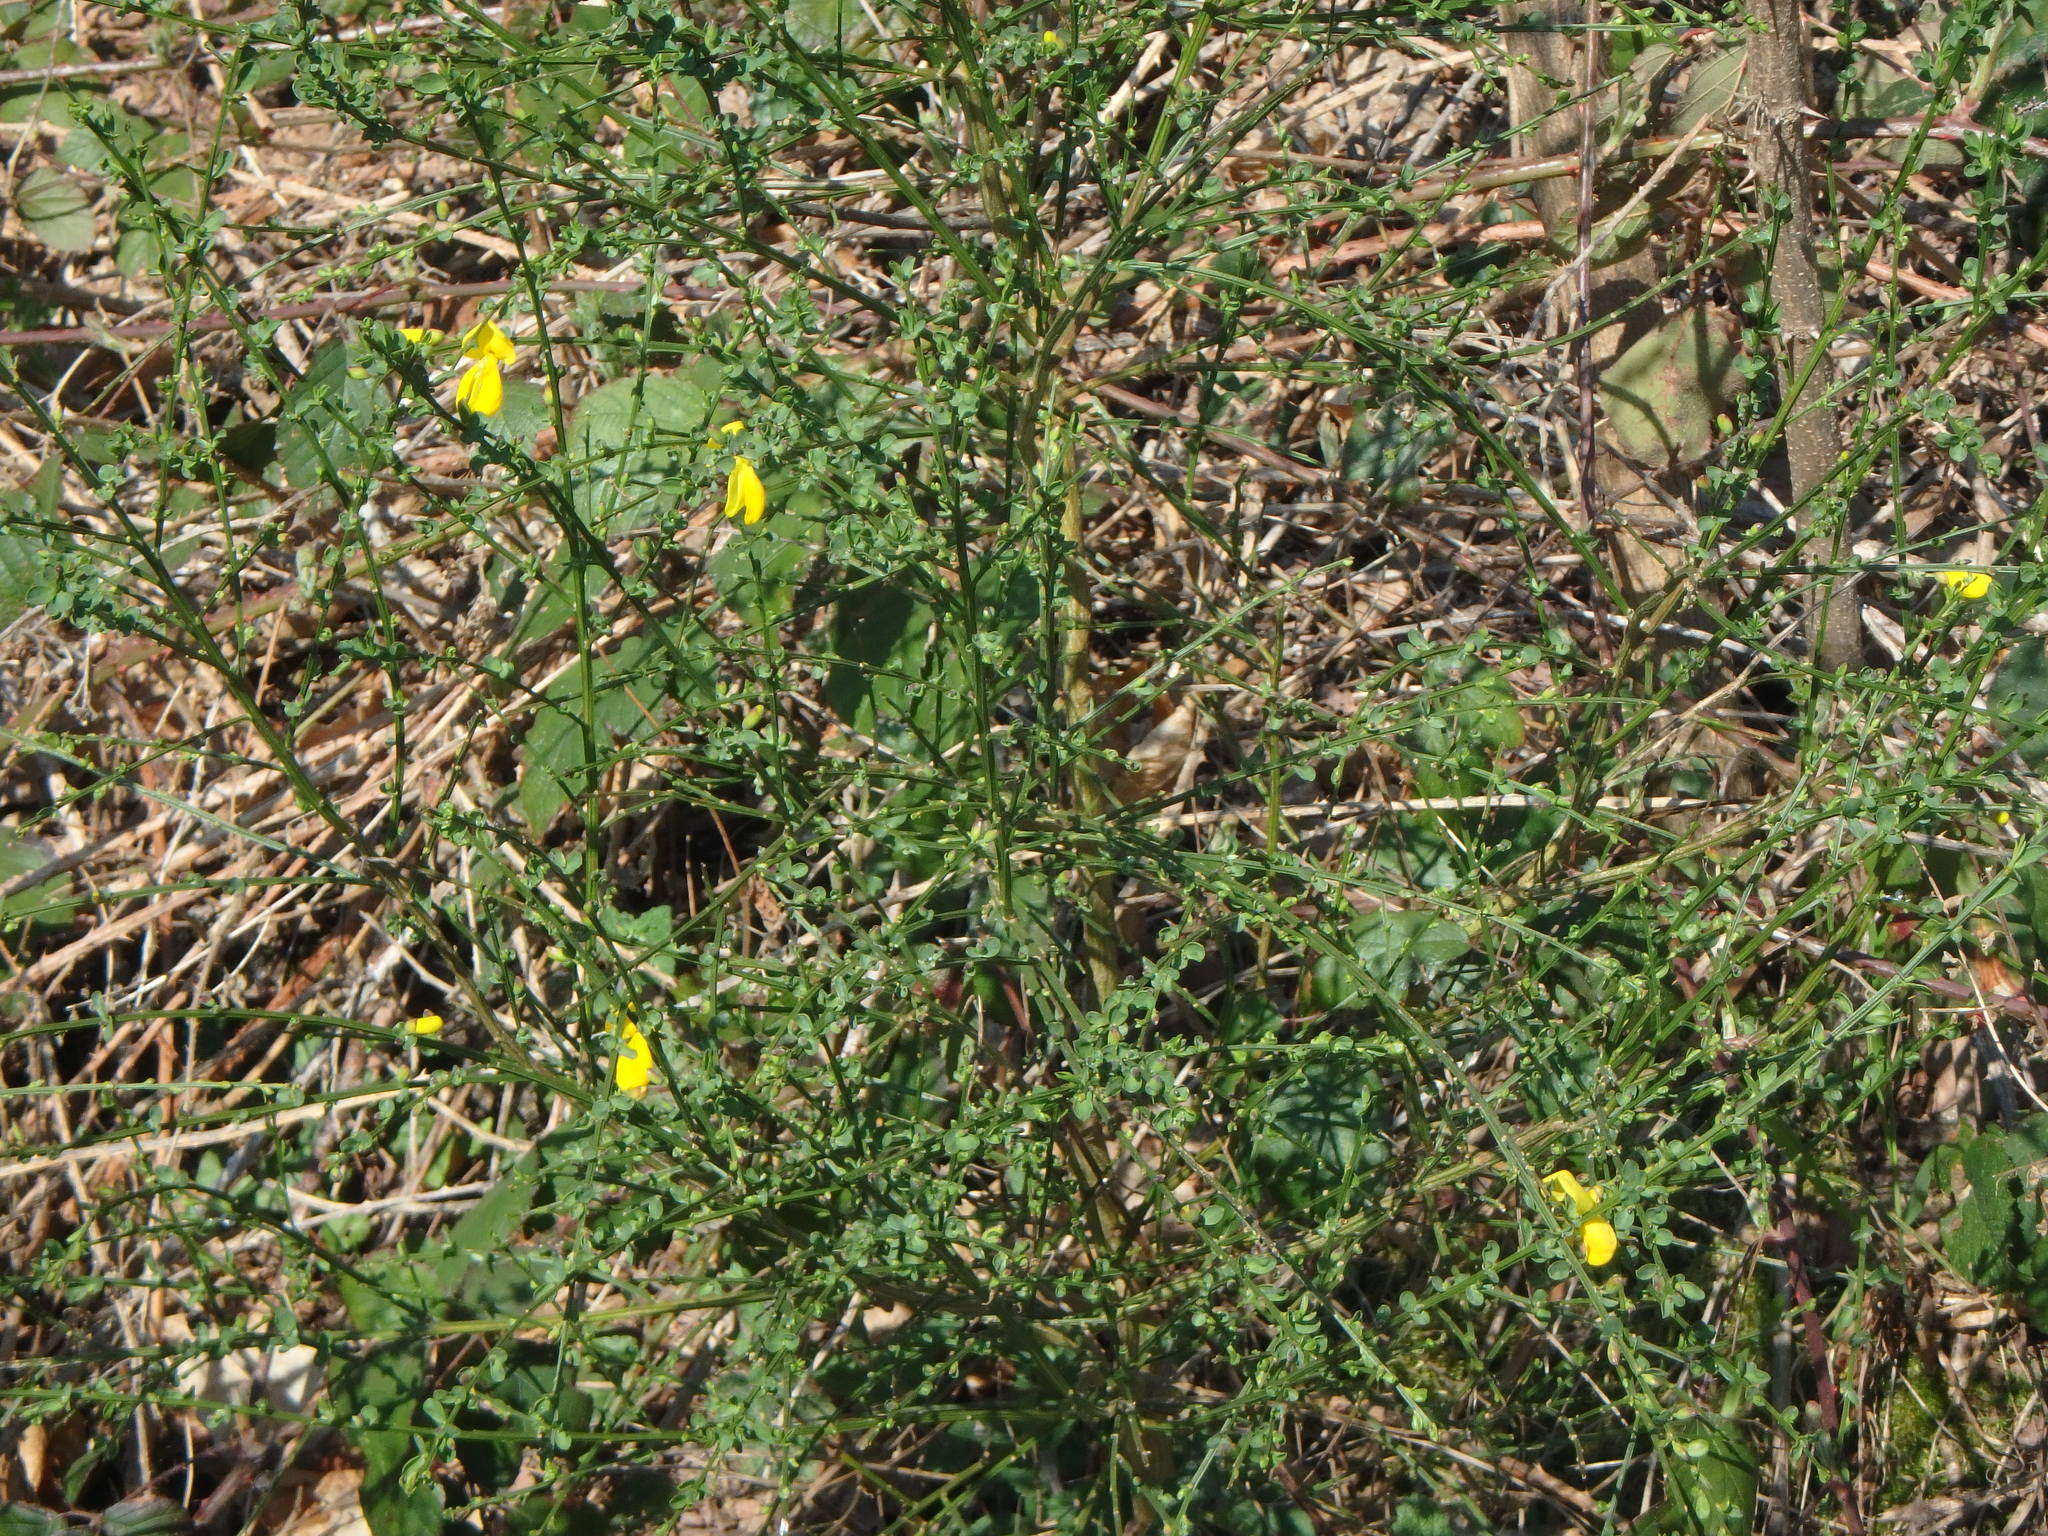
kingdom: Plantae
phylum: Tracheophyta
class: Magnoliopsida
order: Fabales
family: Fabaceae
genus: Cytisus
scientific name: Cytisus scoparius
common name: Scotch broom
